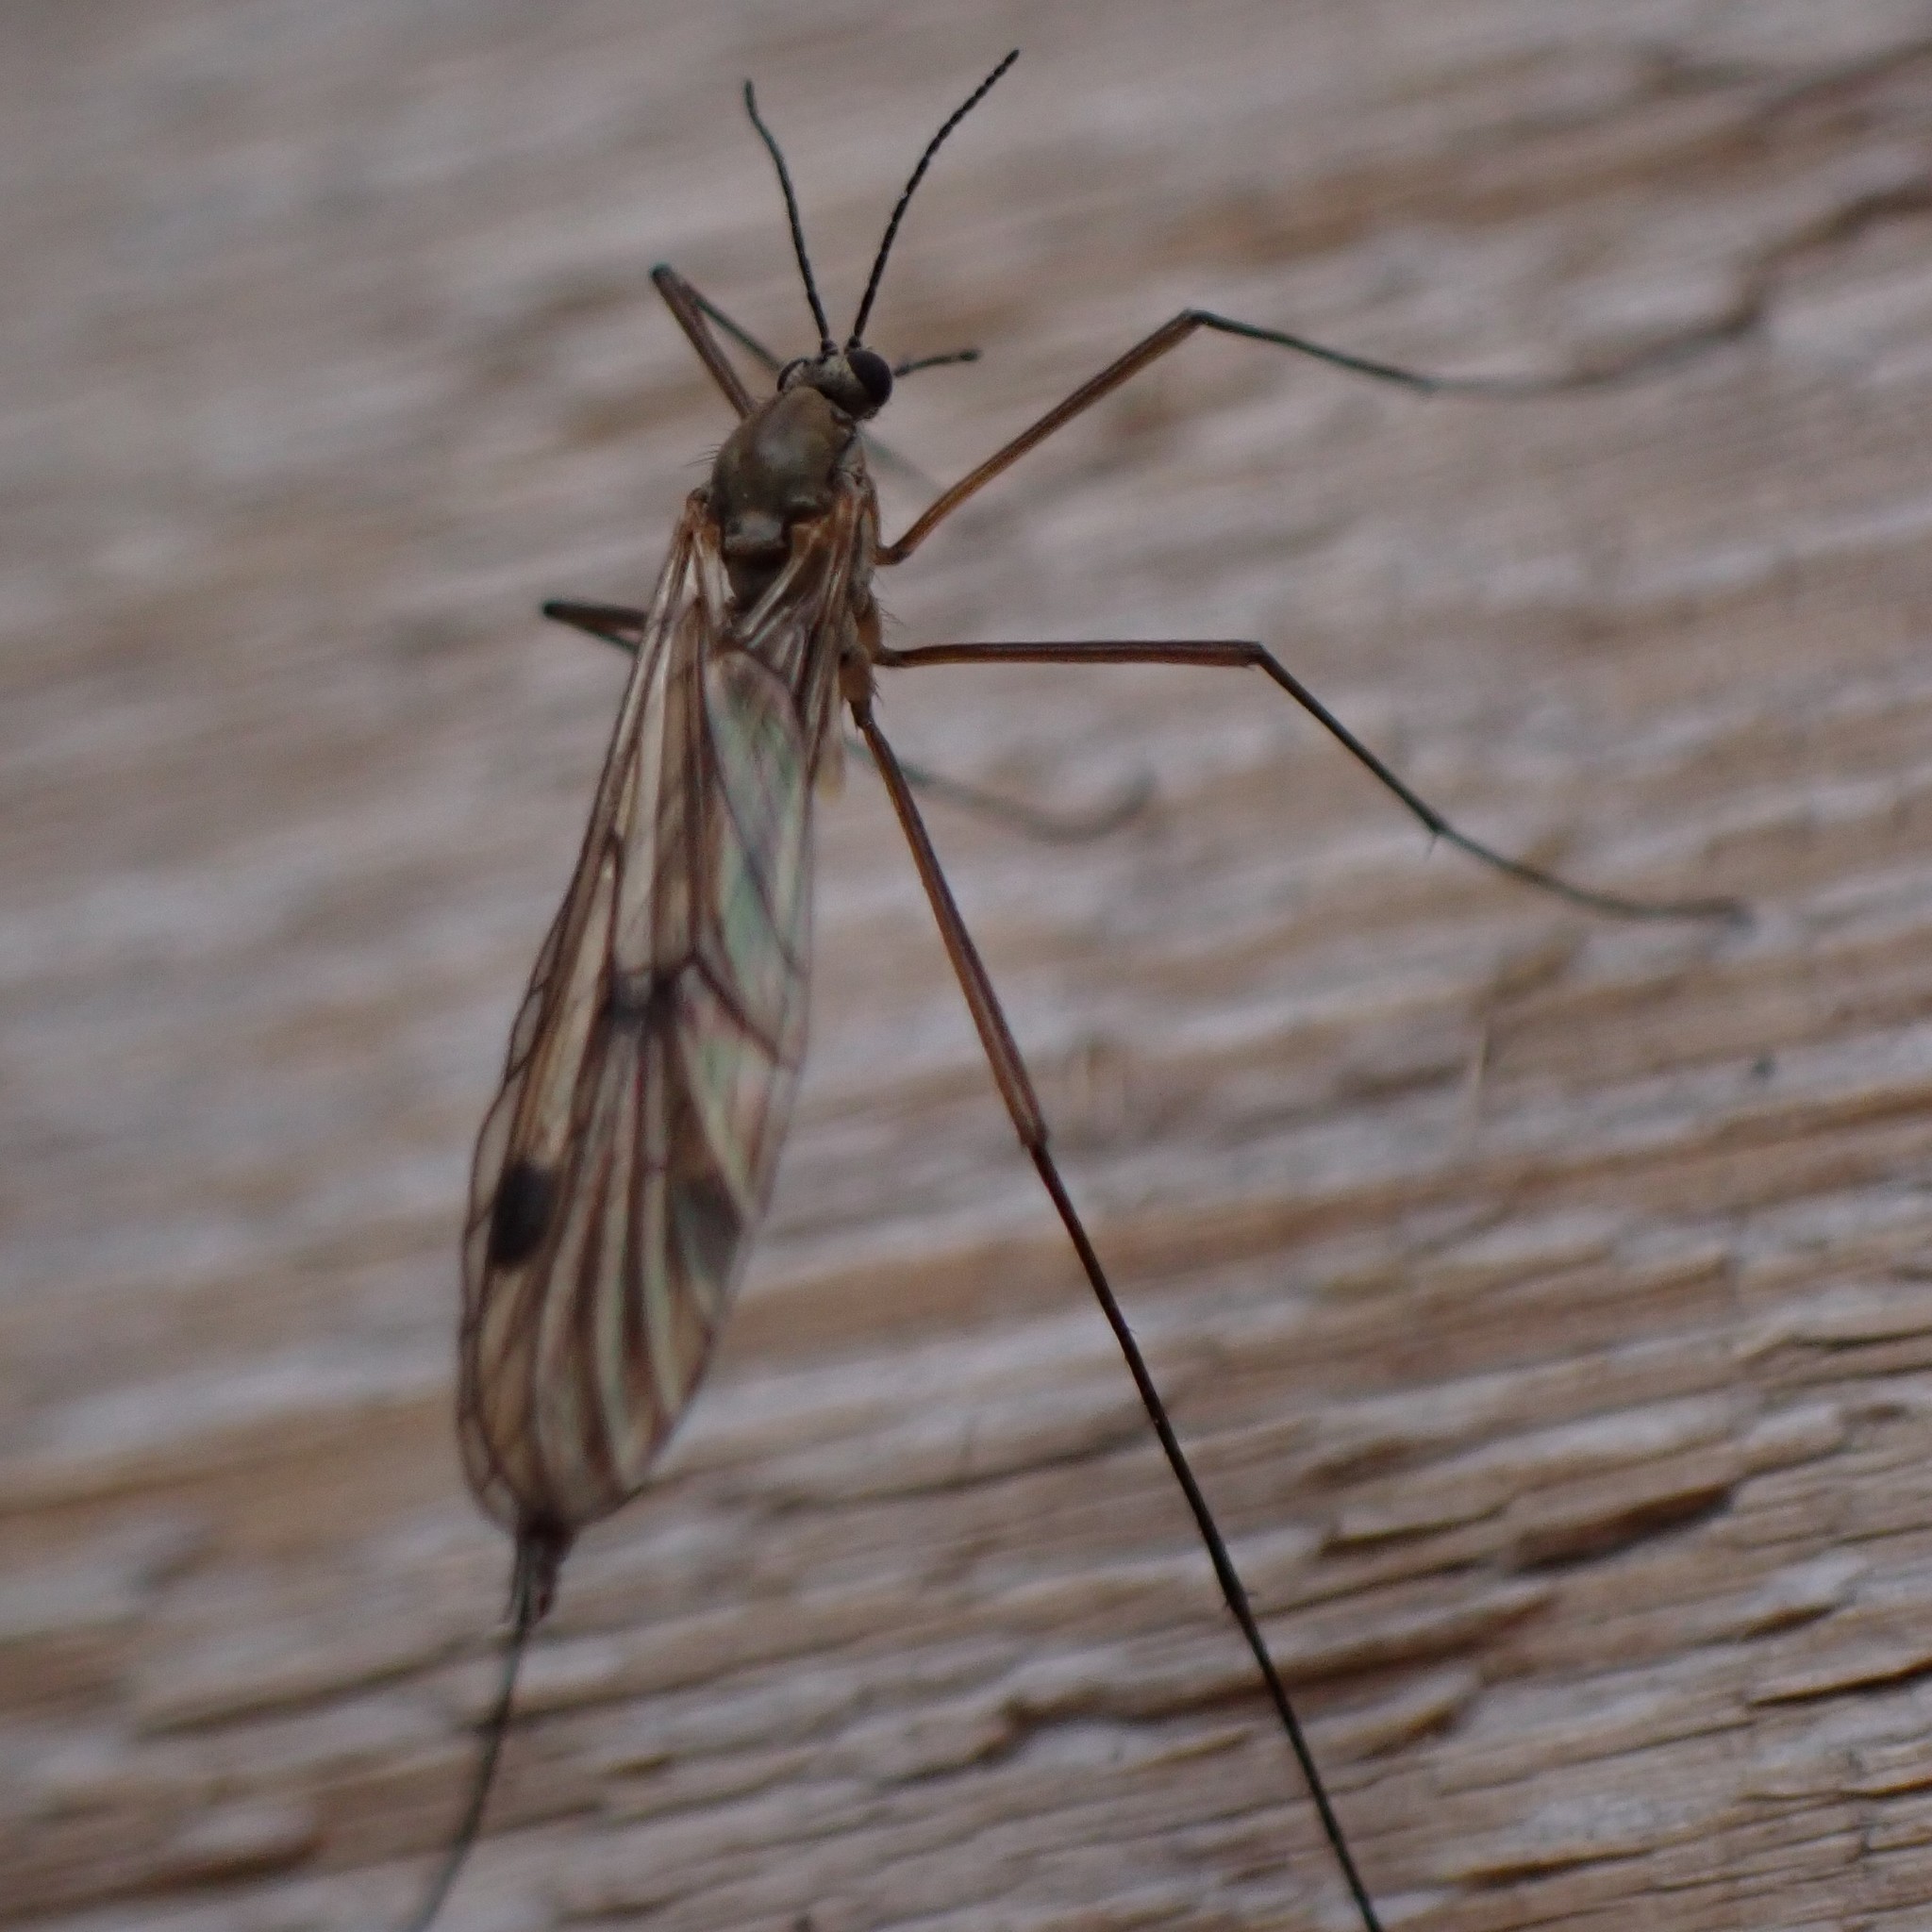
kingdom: Animalia
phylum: Arthropoda
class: Insecta
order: Diptera
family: Pachyneuridae
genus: Cramptonomyia
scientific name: Cramptonomyia spenceri
